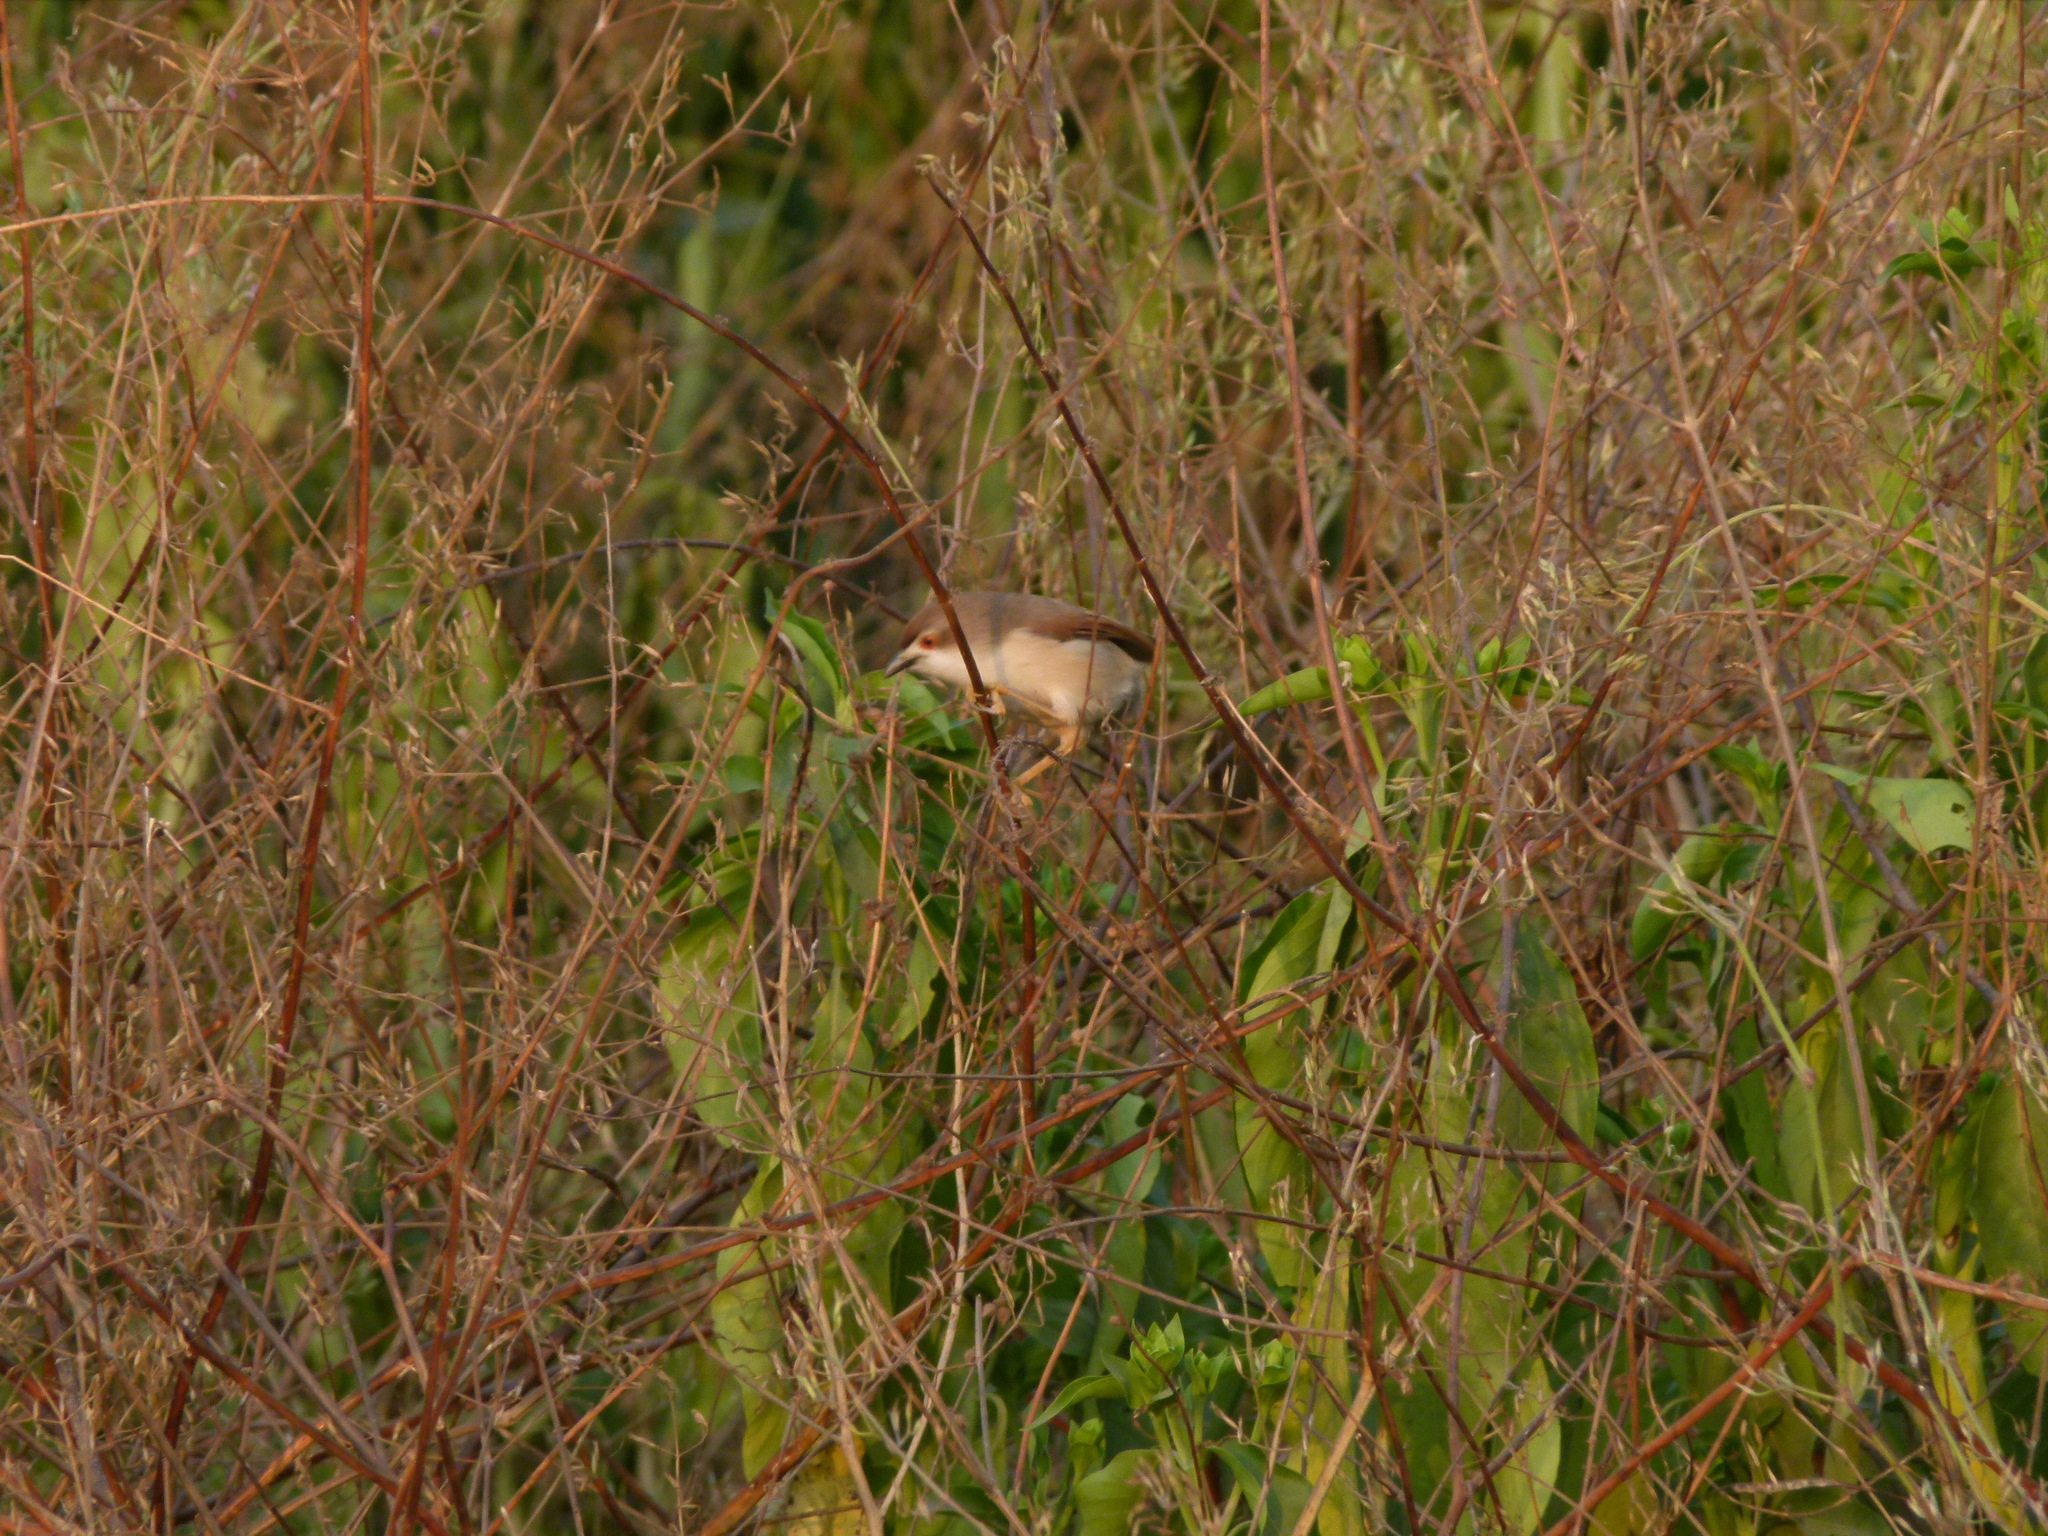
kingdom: Animalia
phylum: Chordata
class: Aves
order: Passeriformes
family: Sylviidae
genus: Chrysomma
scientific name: Chrysomma sinense
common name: Yellow-eyed babbler
